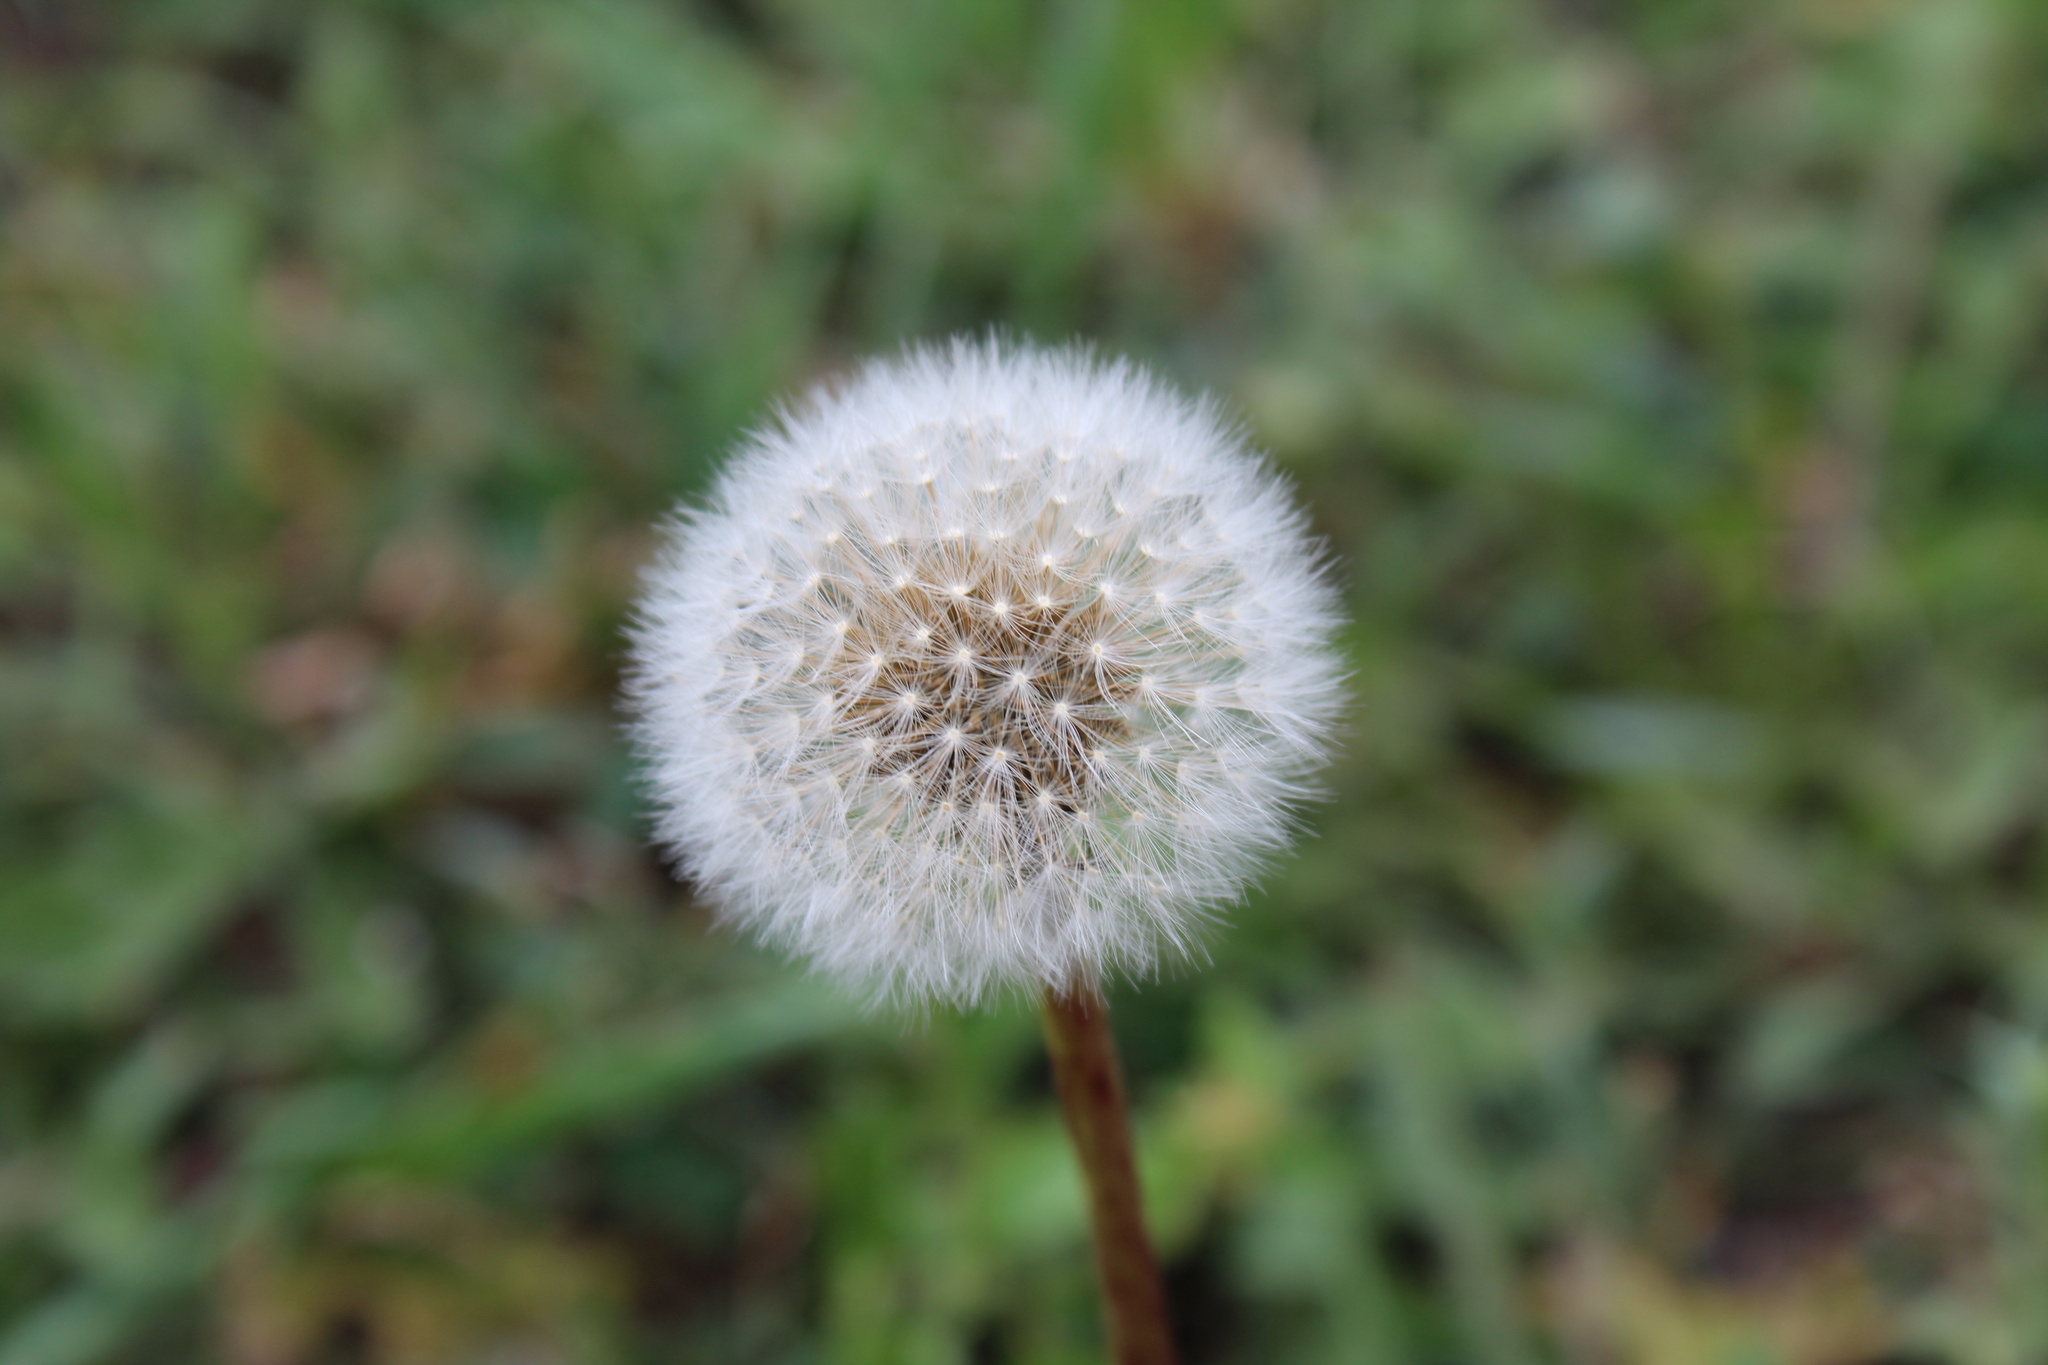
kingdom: Plantae
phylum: Tracheophyta
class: Magnoliopsida
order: Asterales
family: Asteraceae
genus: Taraxacum
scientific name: Taraxacum officinale
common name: Common dandelion
